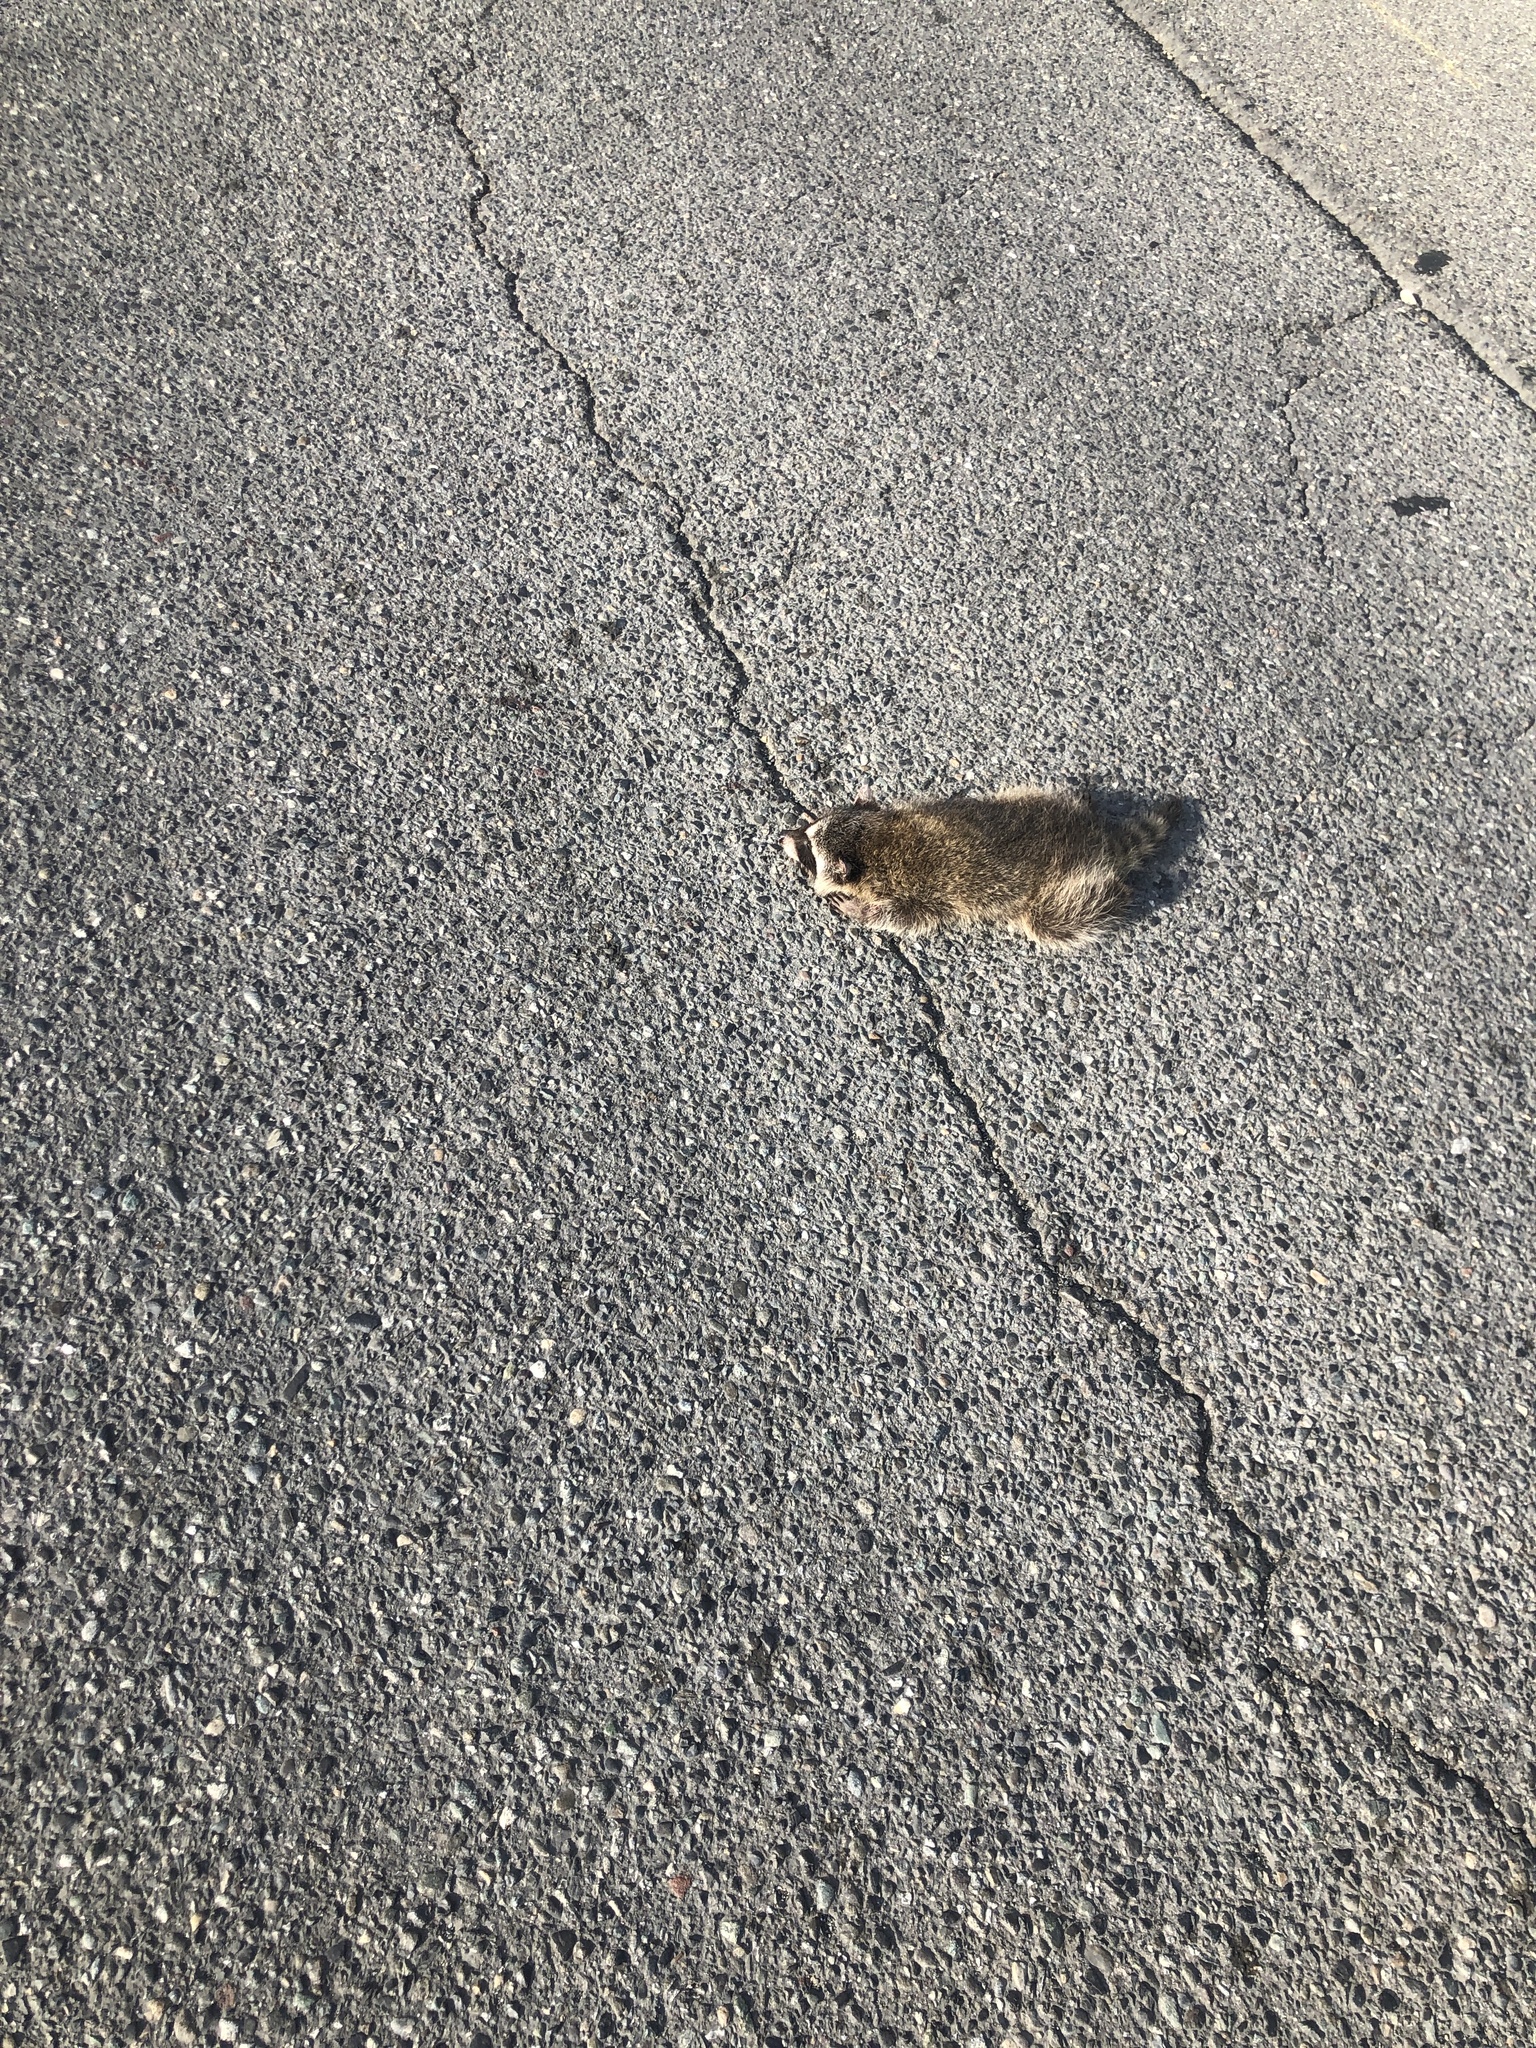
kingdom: Animalia
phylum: Chordata
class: Mammalia
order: Carnivora
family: Procyonidae
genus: Procyon
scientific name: Procyon lotor
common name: Raccoon
